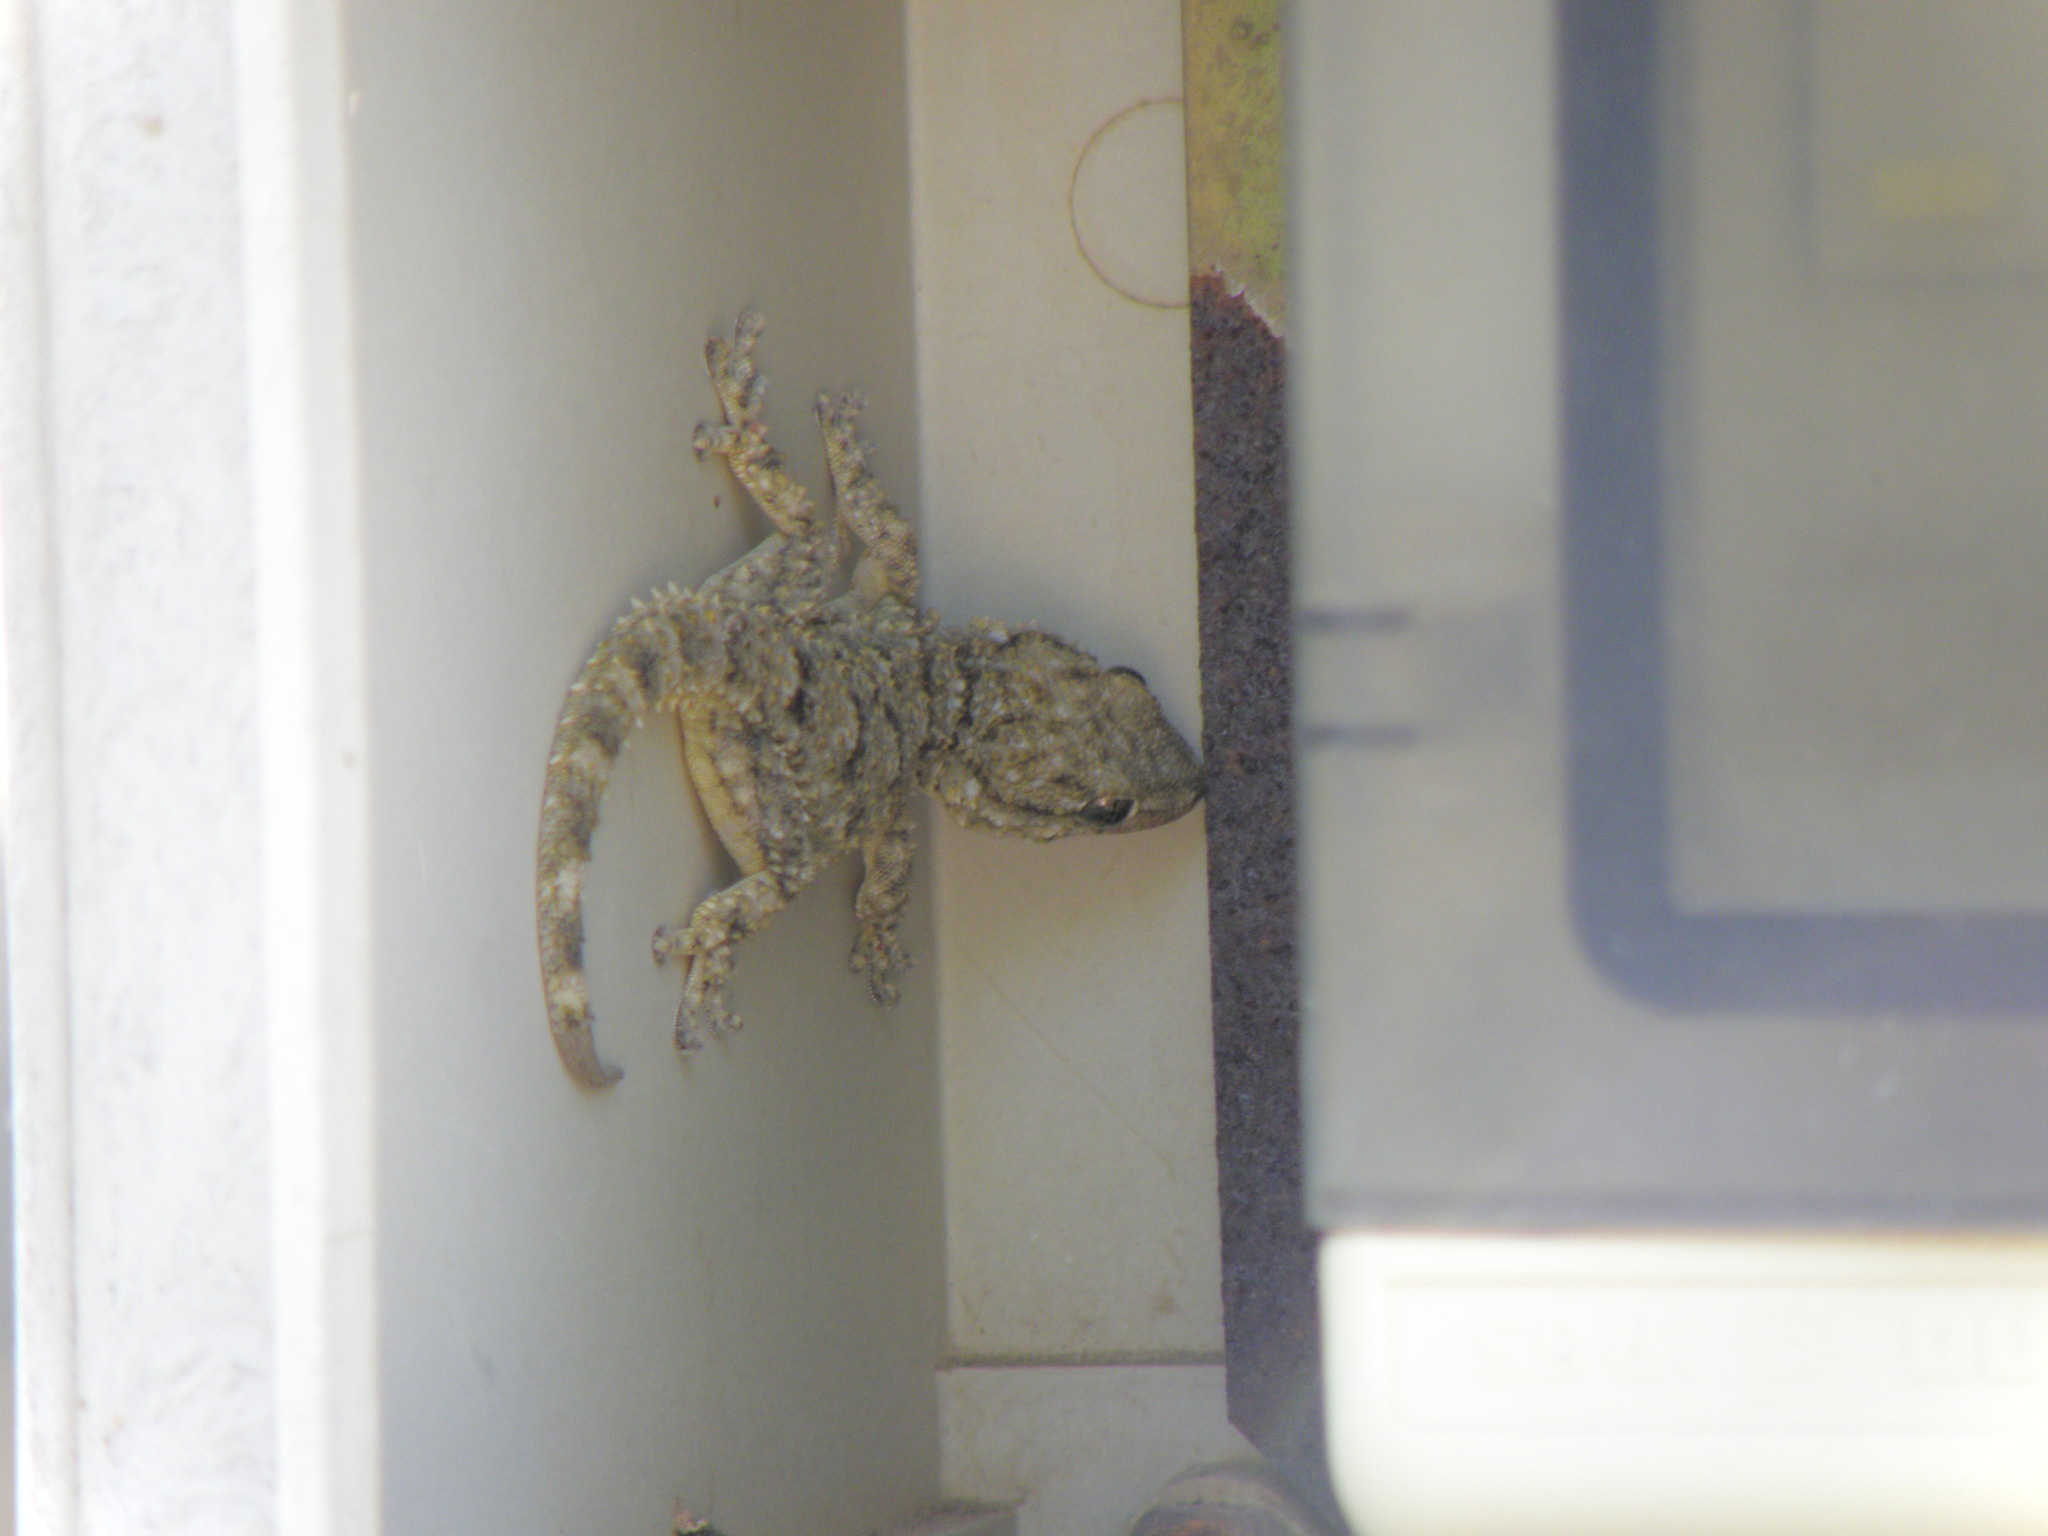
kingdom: Animalia
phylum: Chordata
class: Squamata
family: Phyllodactylidae
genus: Tarentola
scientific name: Tarentola mauritanica
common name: Moorish gecko
